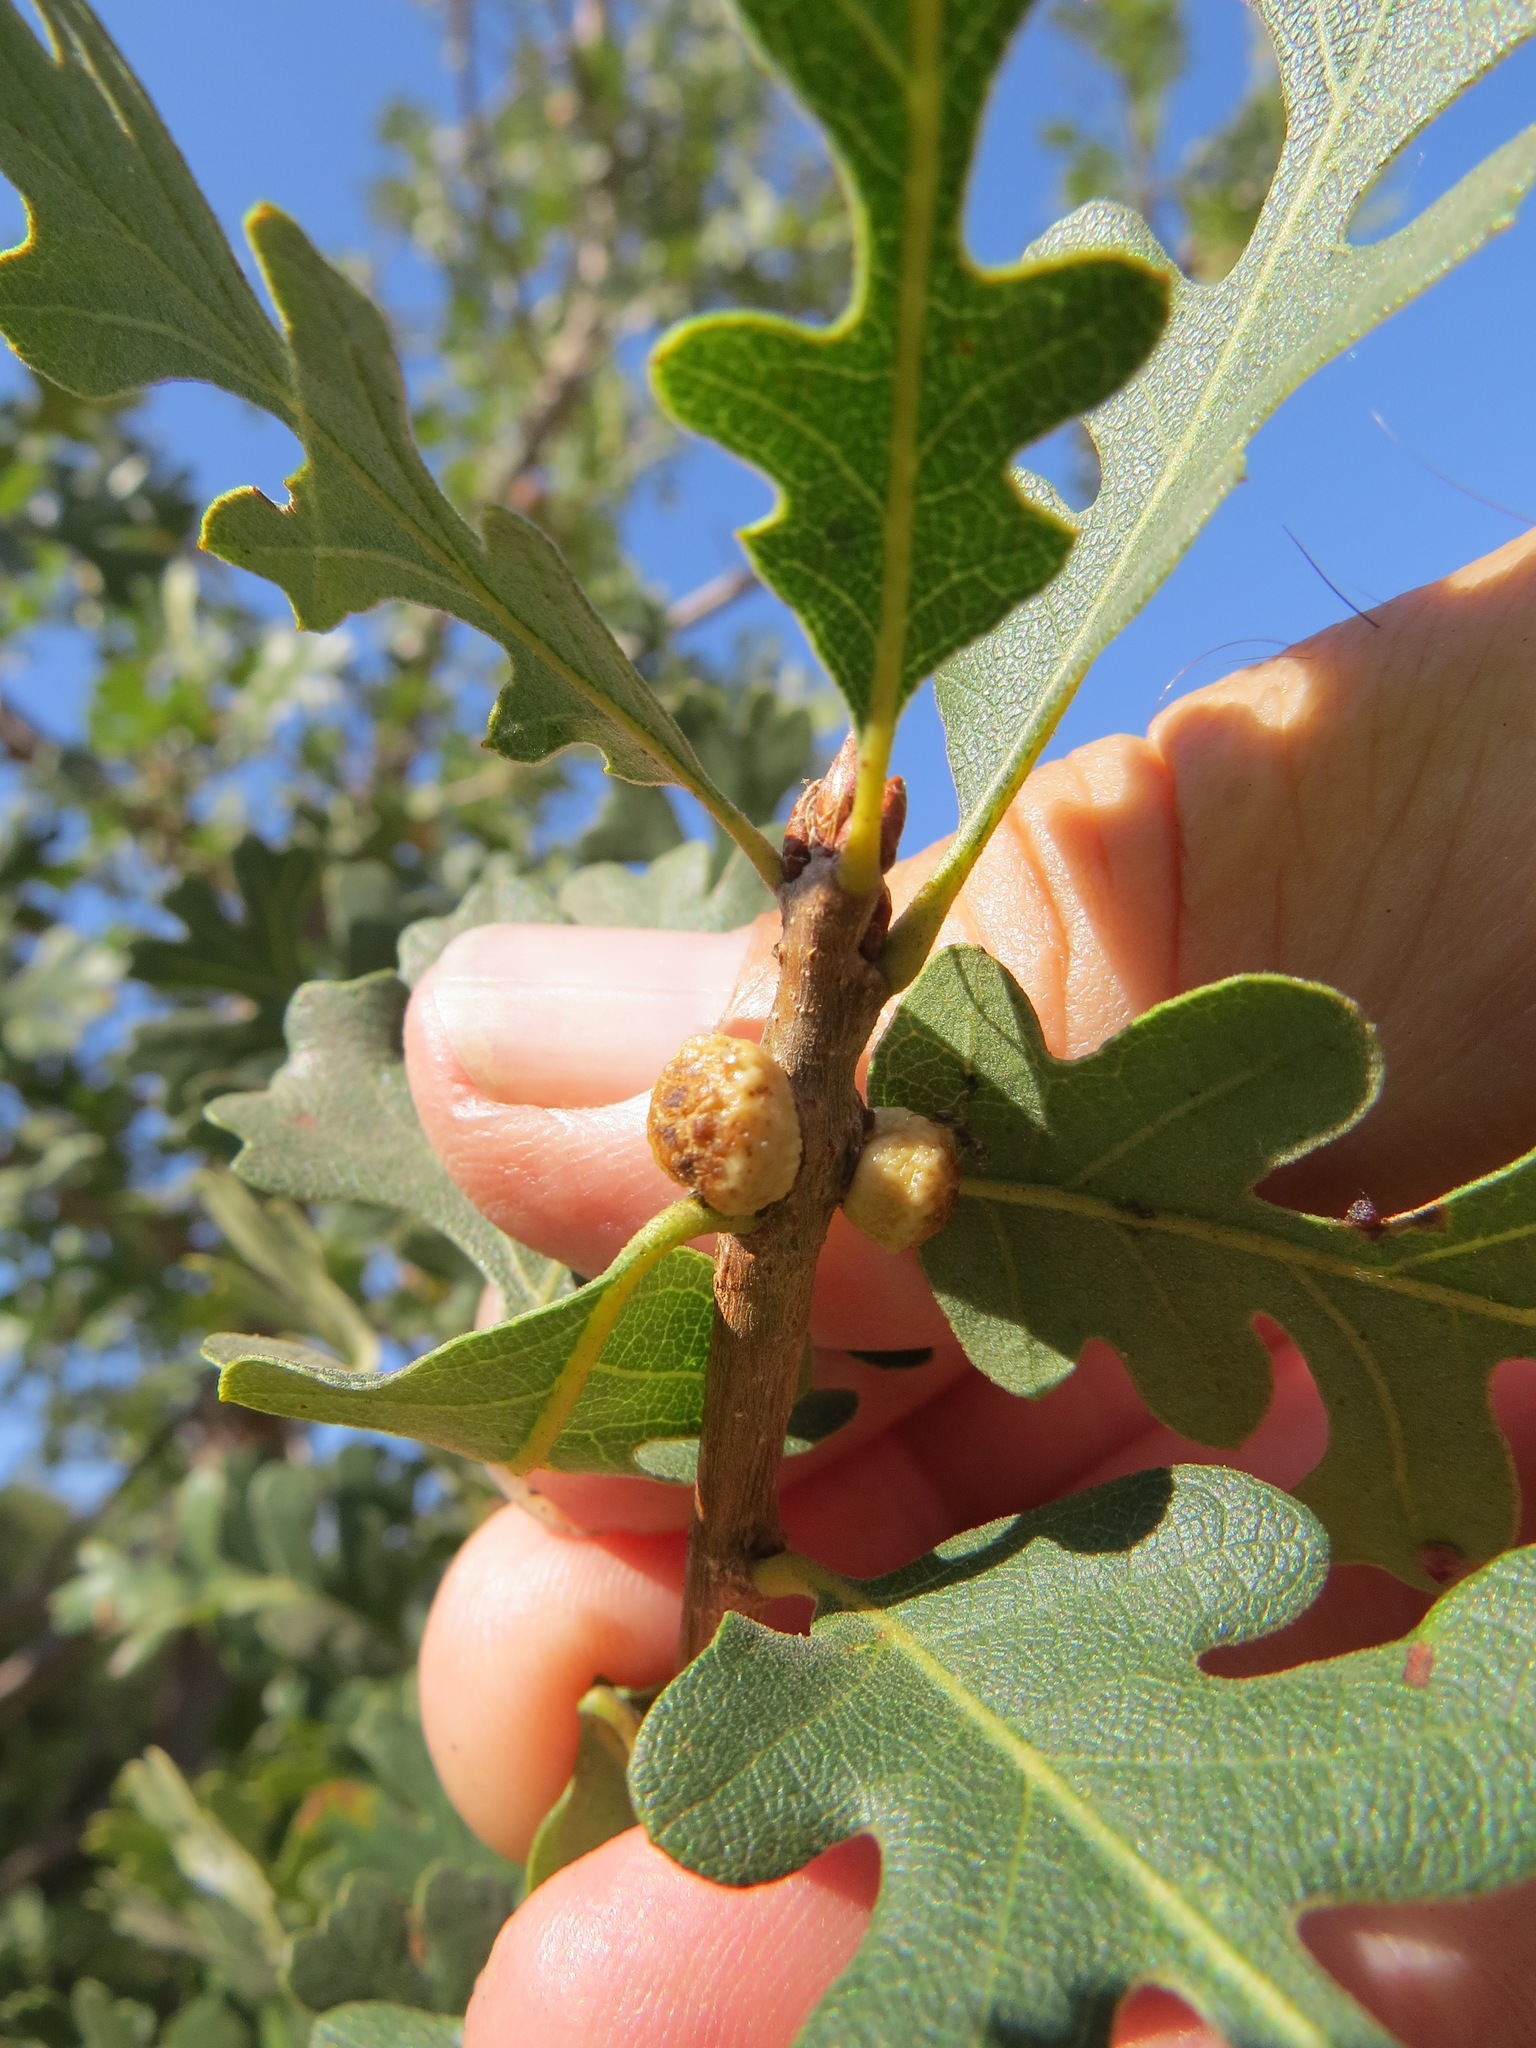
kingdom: Animalia
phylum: Arthropoda
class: Insecta
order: Hymenoptera
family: Cynipidae
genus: Disholcaspis
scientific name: Disholcaspis
